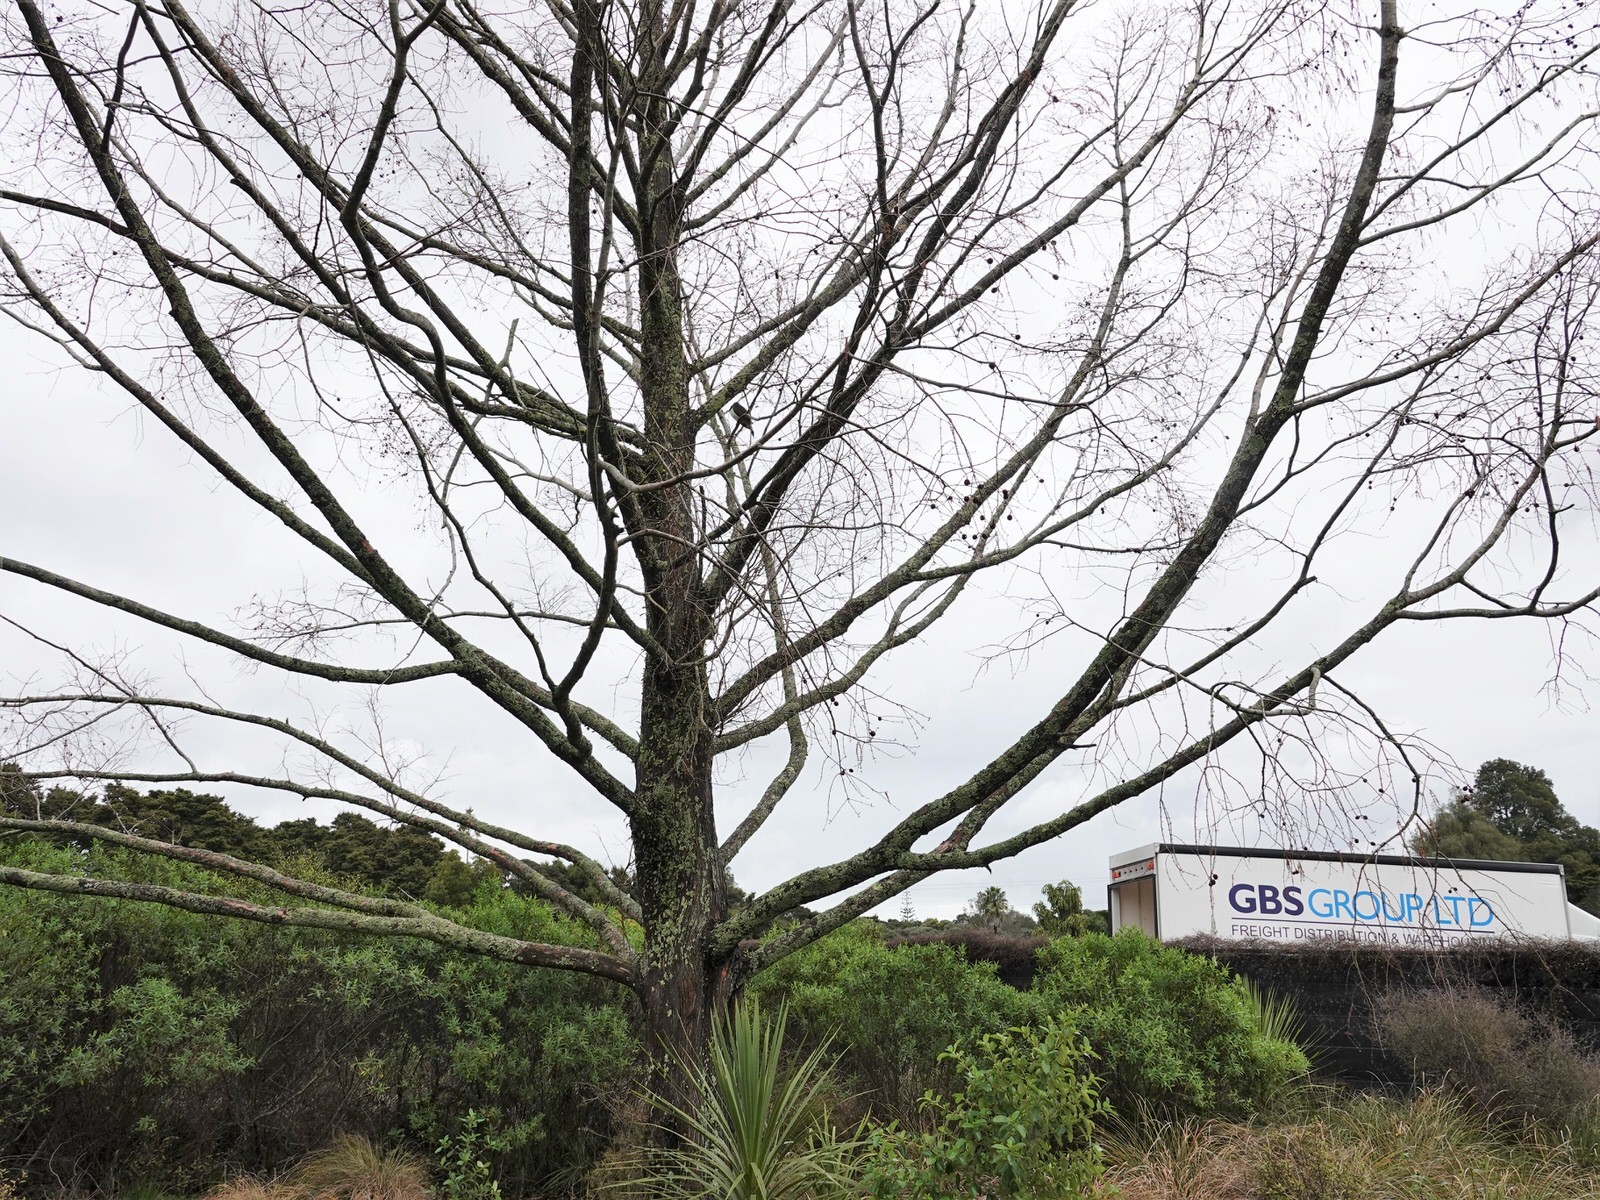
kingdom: Animalia
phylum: Chordata
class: Aves
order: Columbiformes
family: Columbidae
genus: Hemiphaga
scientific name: Hemiphaga novaeseelandiae
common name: New zealand pigeon
